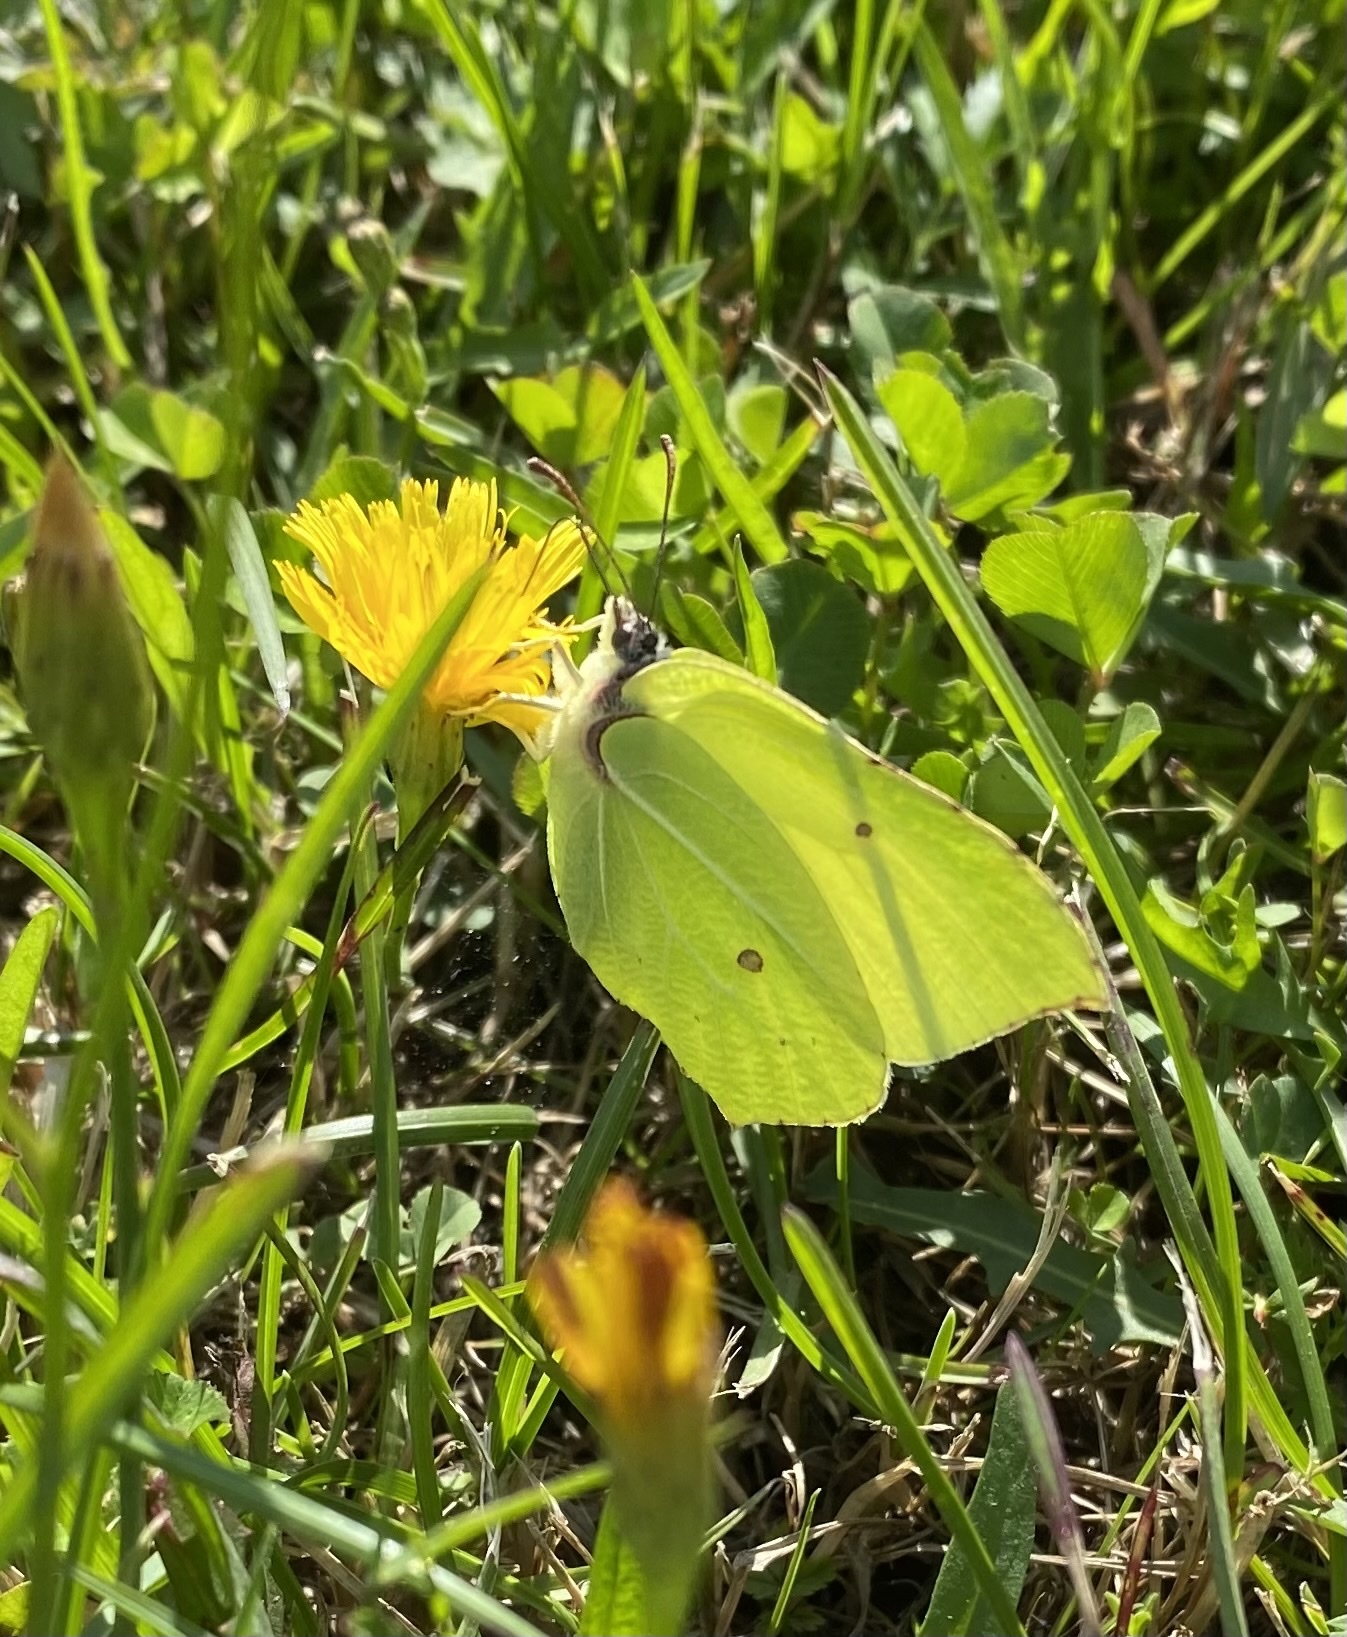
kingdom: Animalia
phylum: Arthropoda
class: Insecta
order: Lepidoptera
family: Pieridae
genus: Gonepteryx
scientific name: Gonepteryx rhamni
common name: Brimstone
